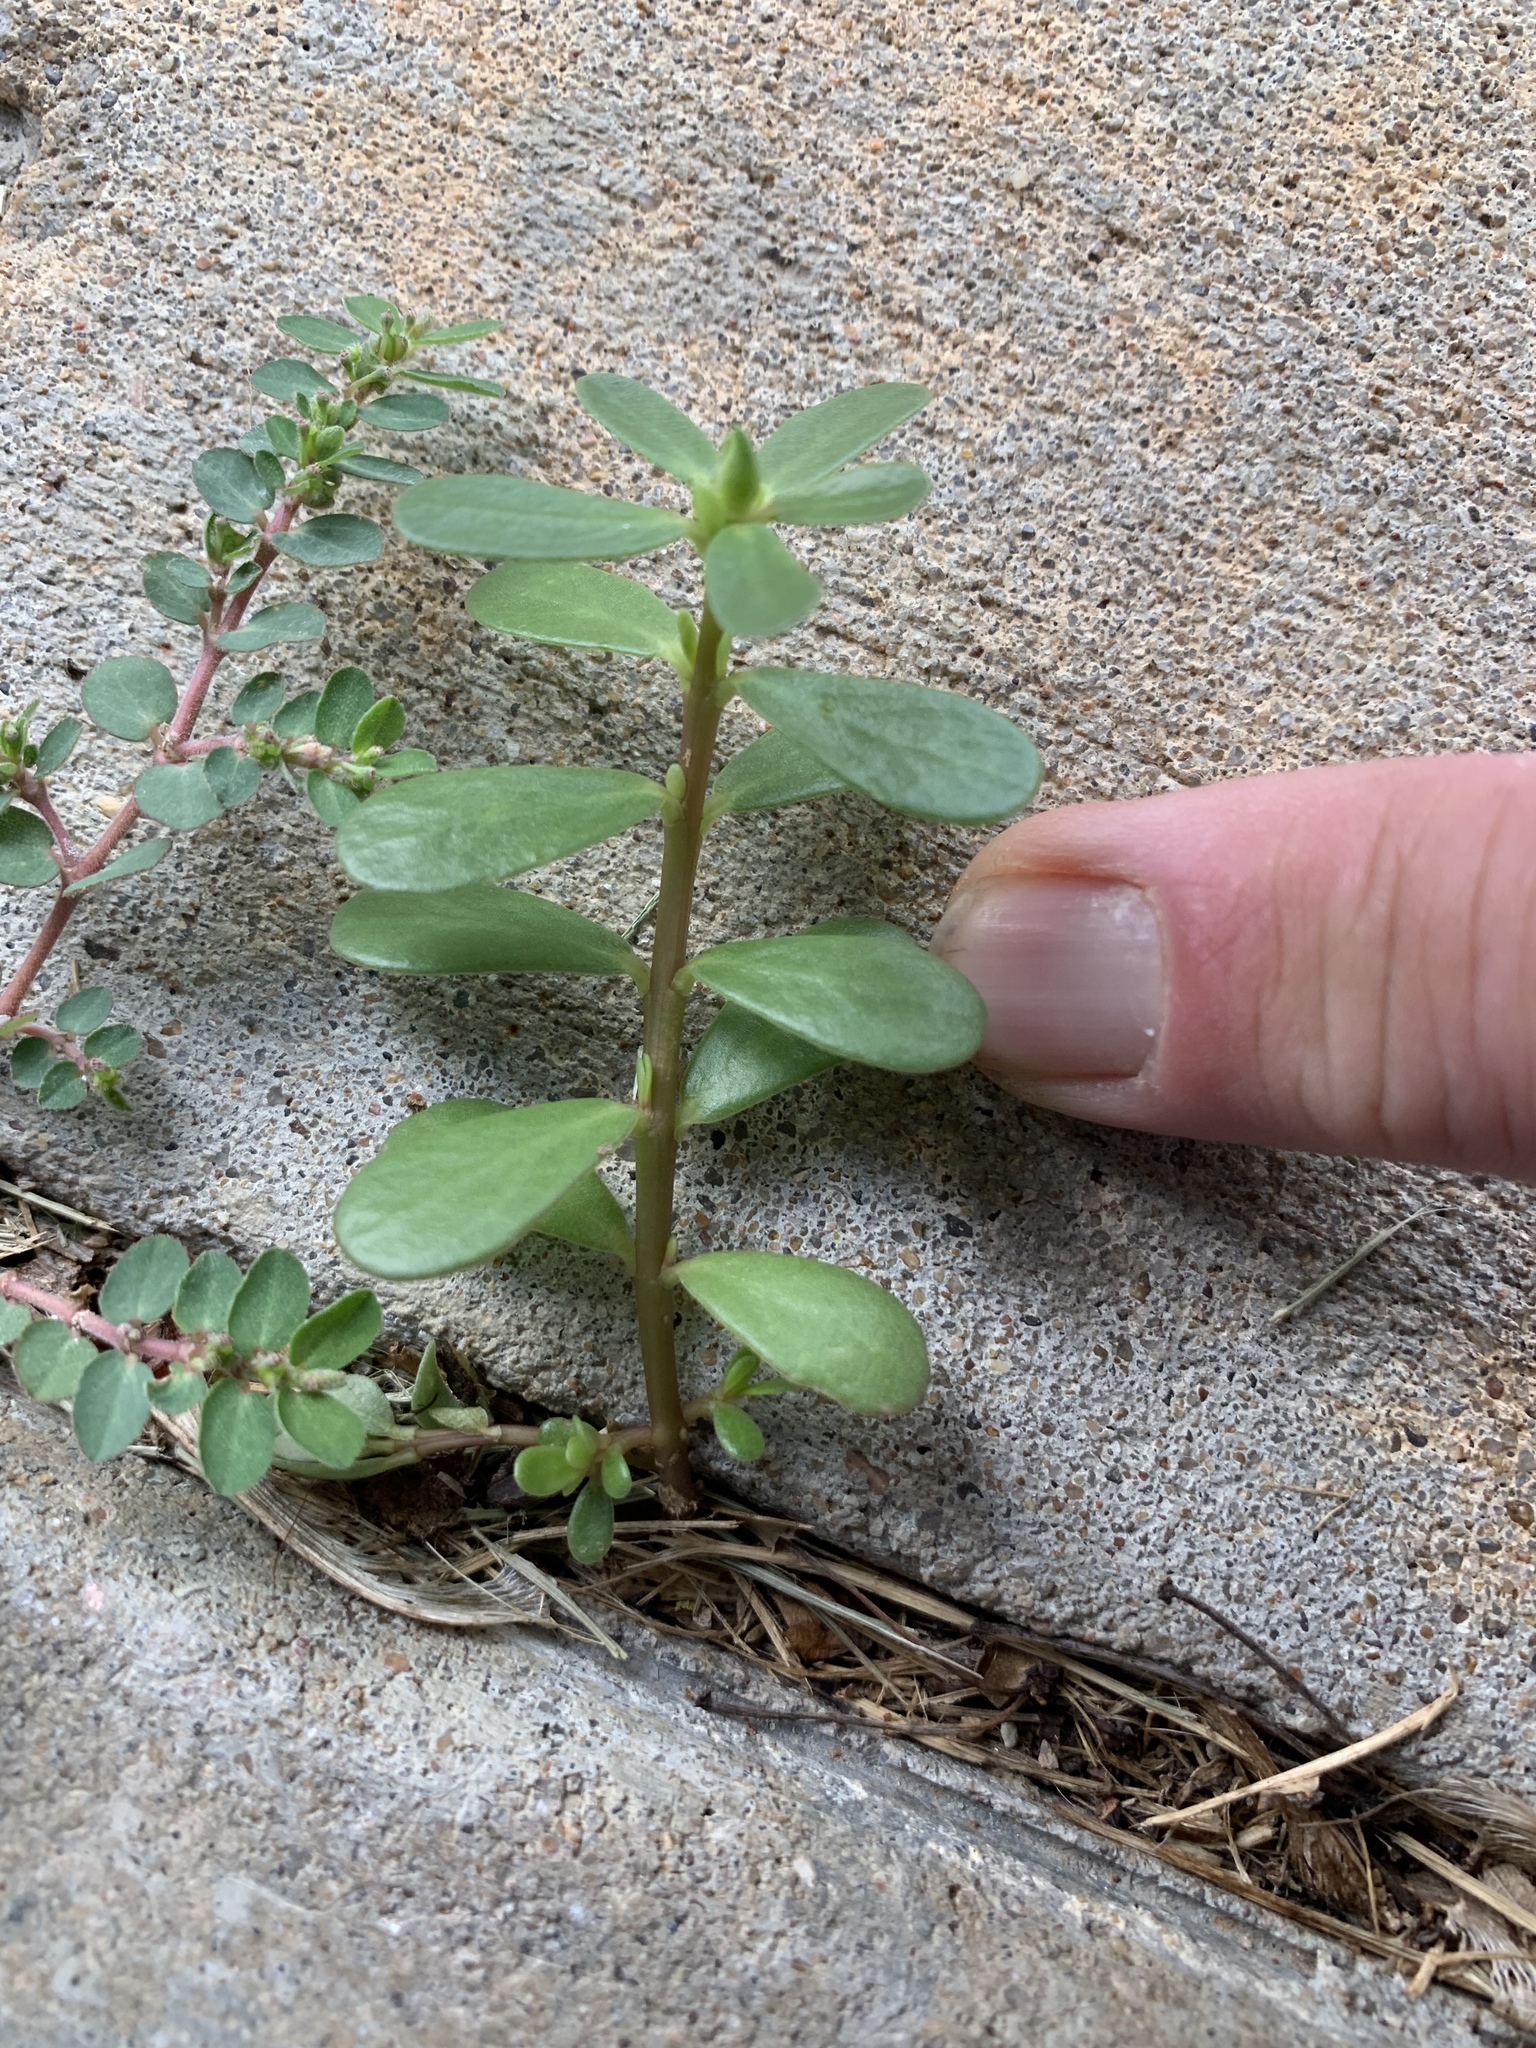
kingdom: Plantae
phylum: Tracheophyta
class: Magnoliopsida
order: Caryophyllales
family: Portulacaceae
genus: Portulaca
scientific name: Portulaca oleracea
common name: Common purslane
